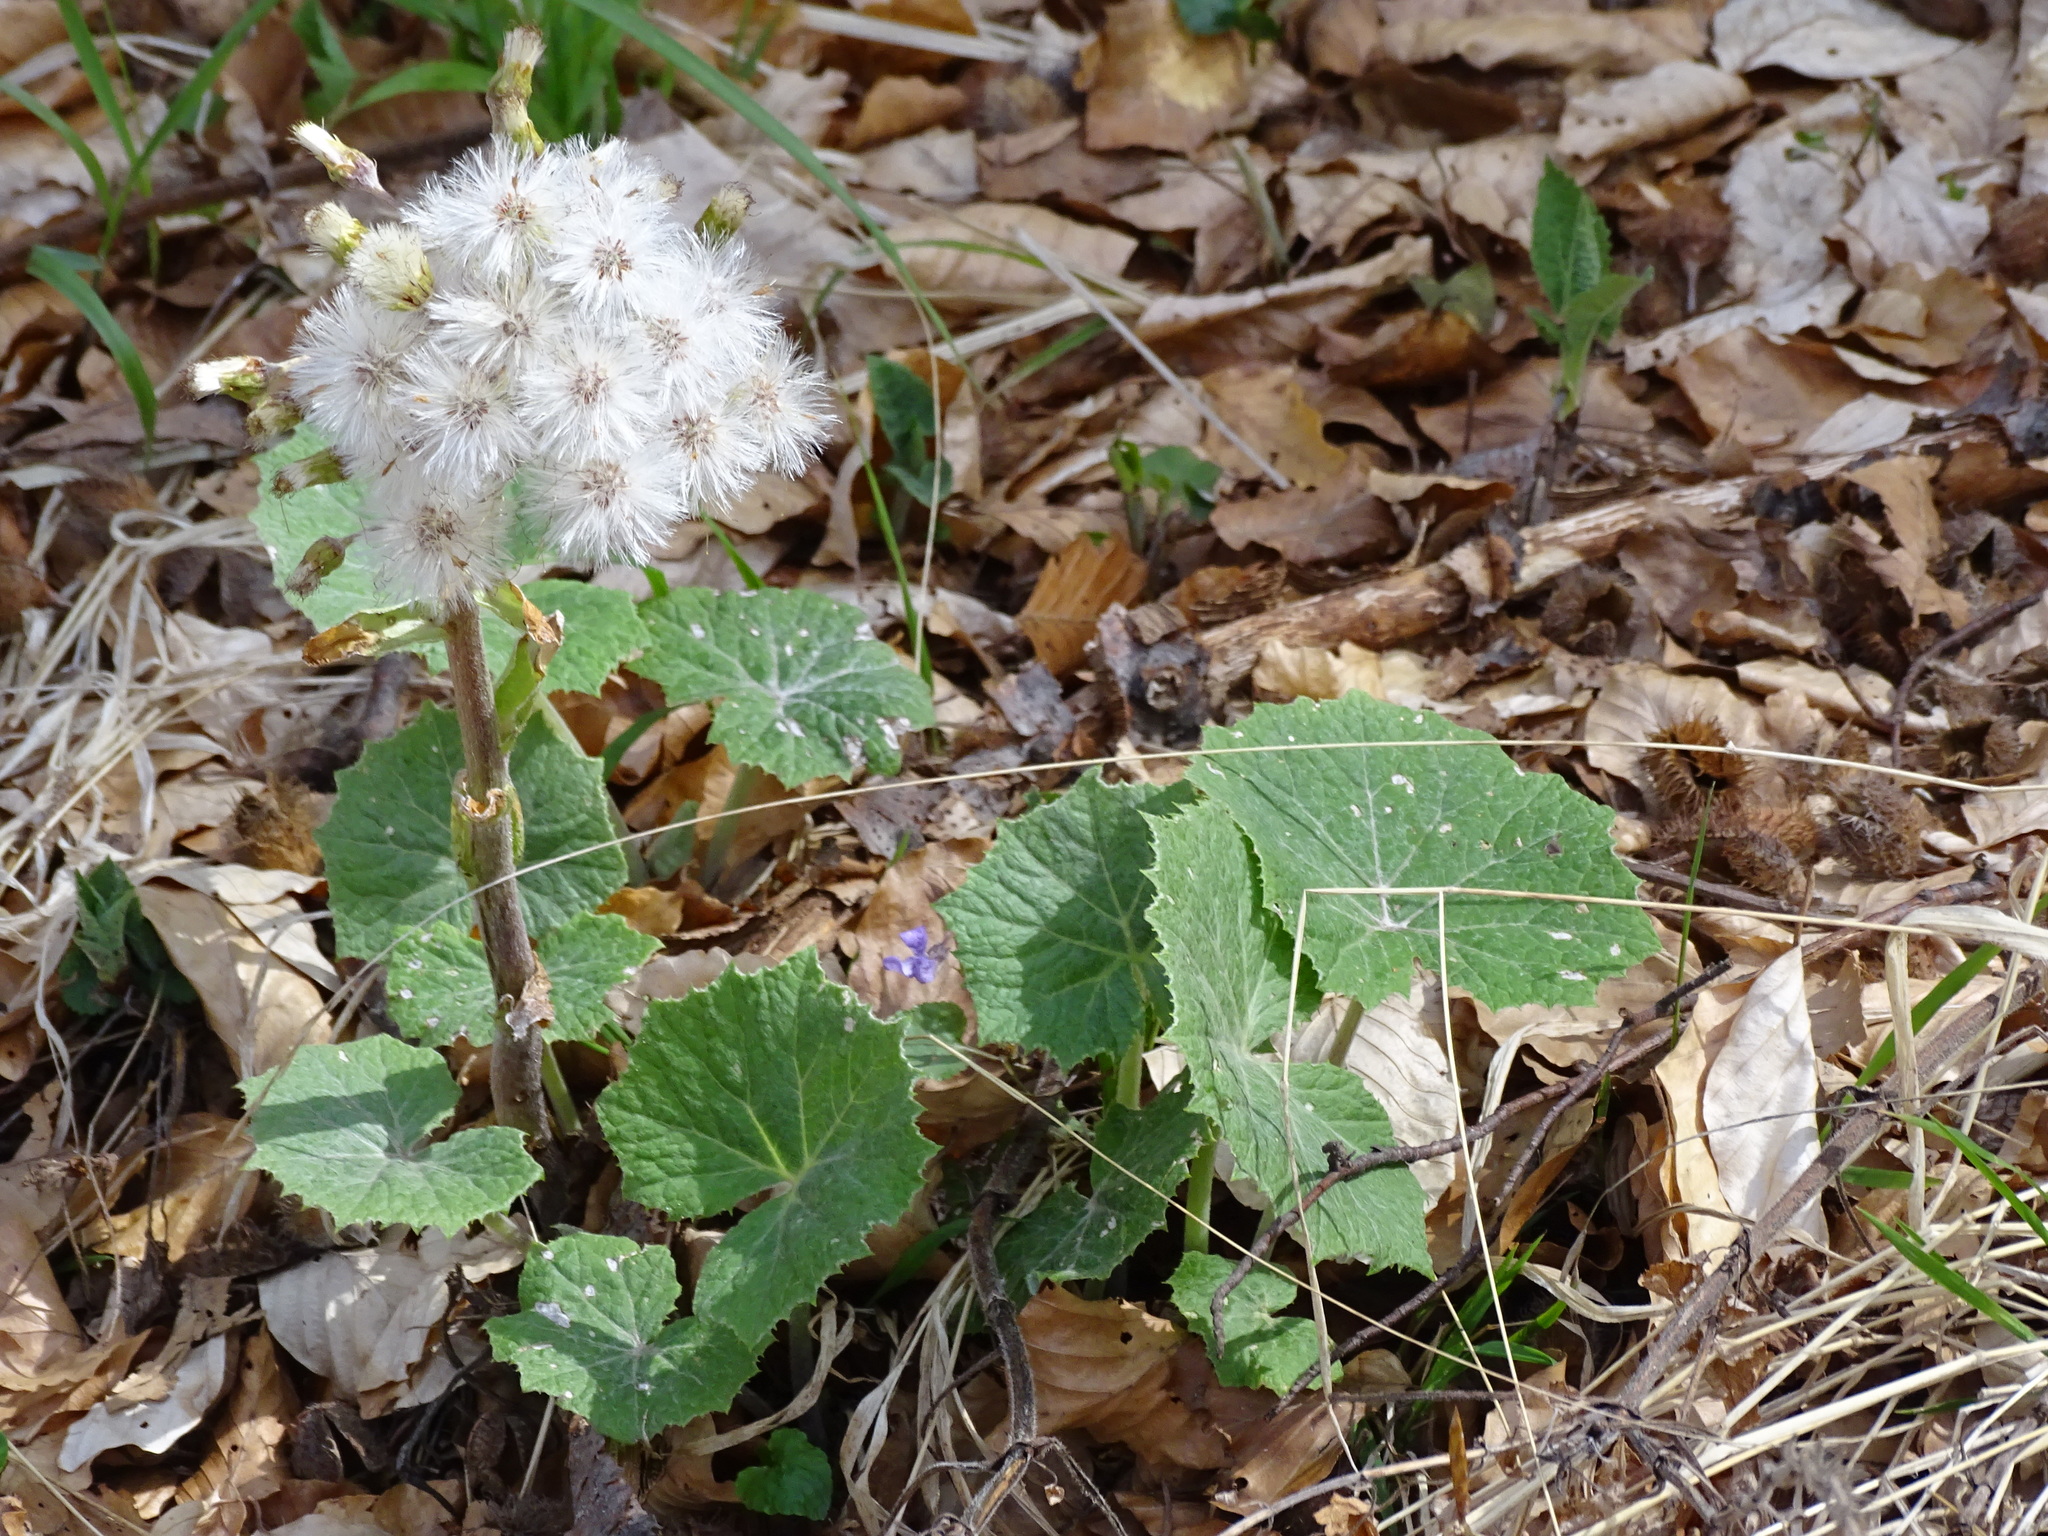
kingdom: Plantae
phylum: Tracheophyta
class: Magnoliopsida
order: Asterales
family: Asteraceae
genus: Petasites
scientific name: Petasites albus
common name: White butterbur
